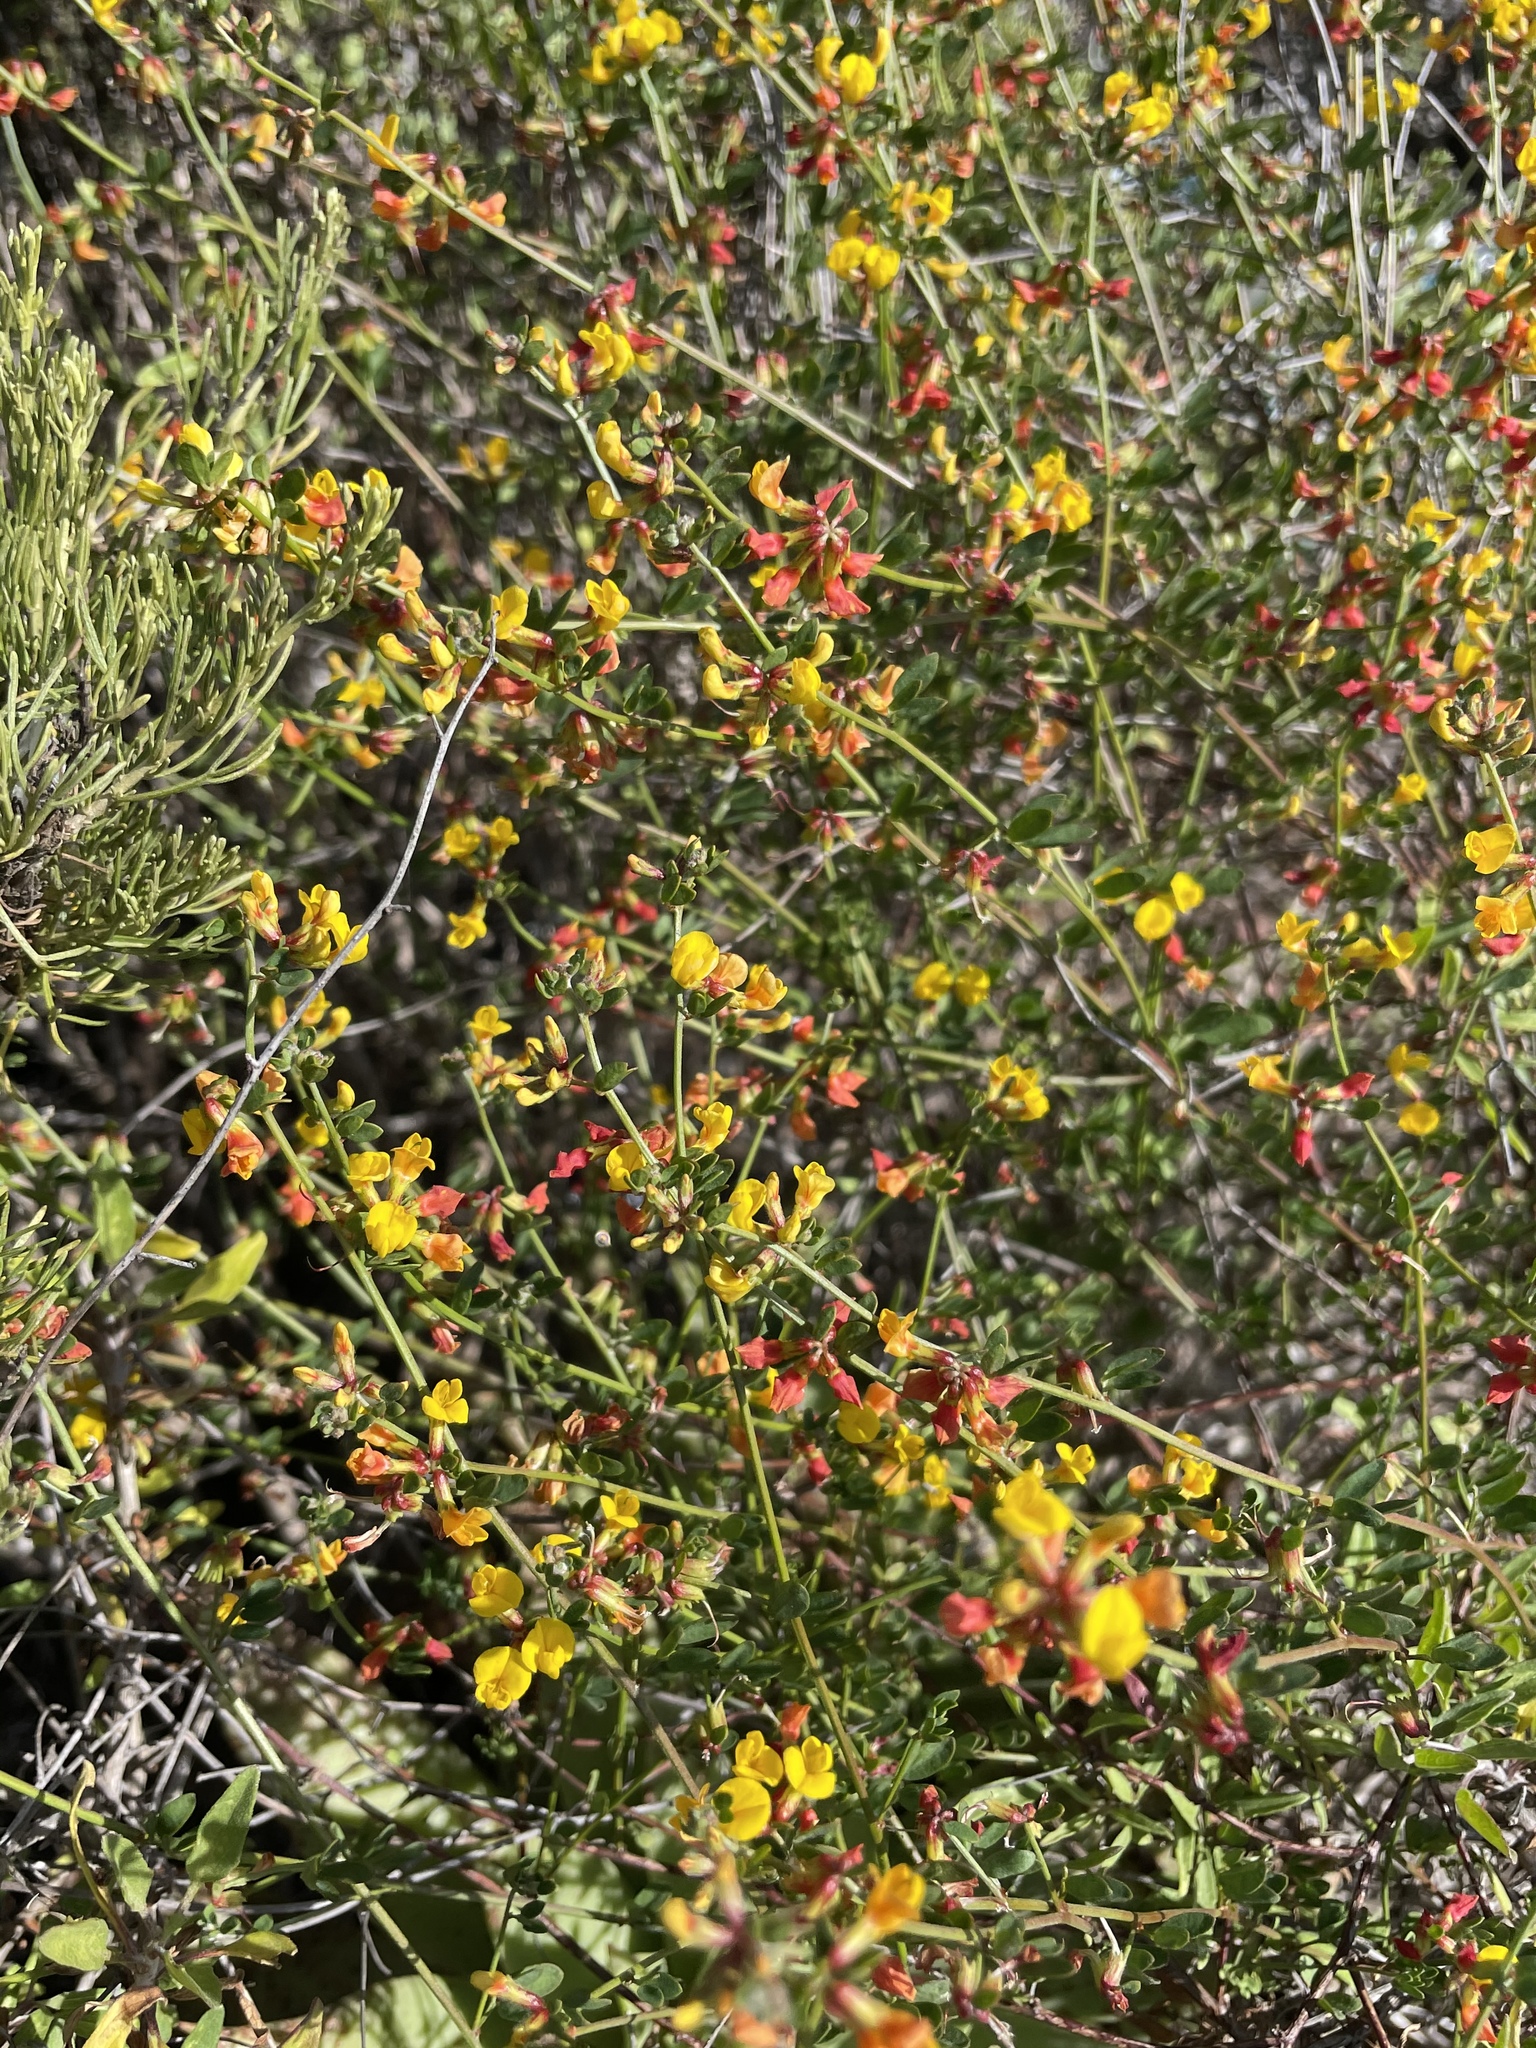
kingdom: Plantae
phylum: Tracheophyta
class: Magnoliopsida
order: Fabales
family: Fabaceae
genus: Acmispon
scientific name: Acmispon watsonii
